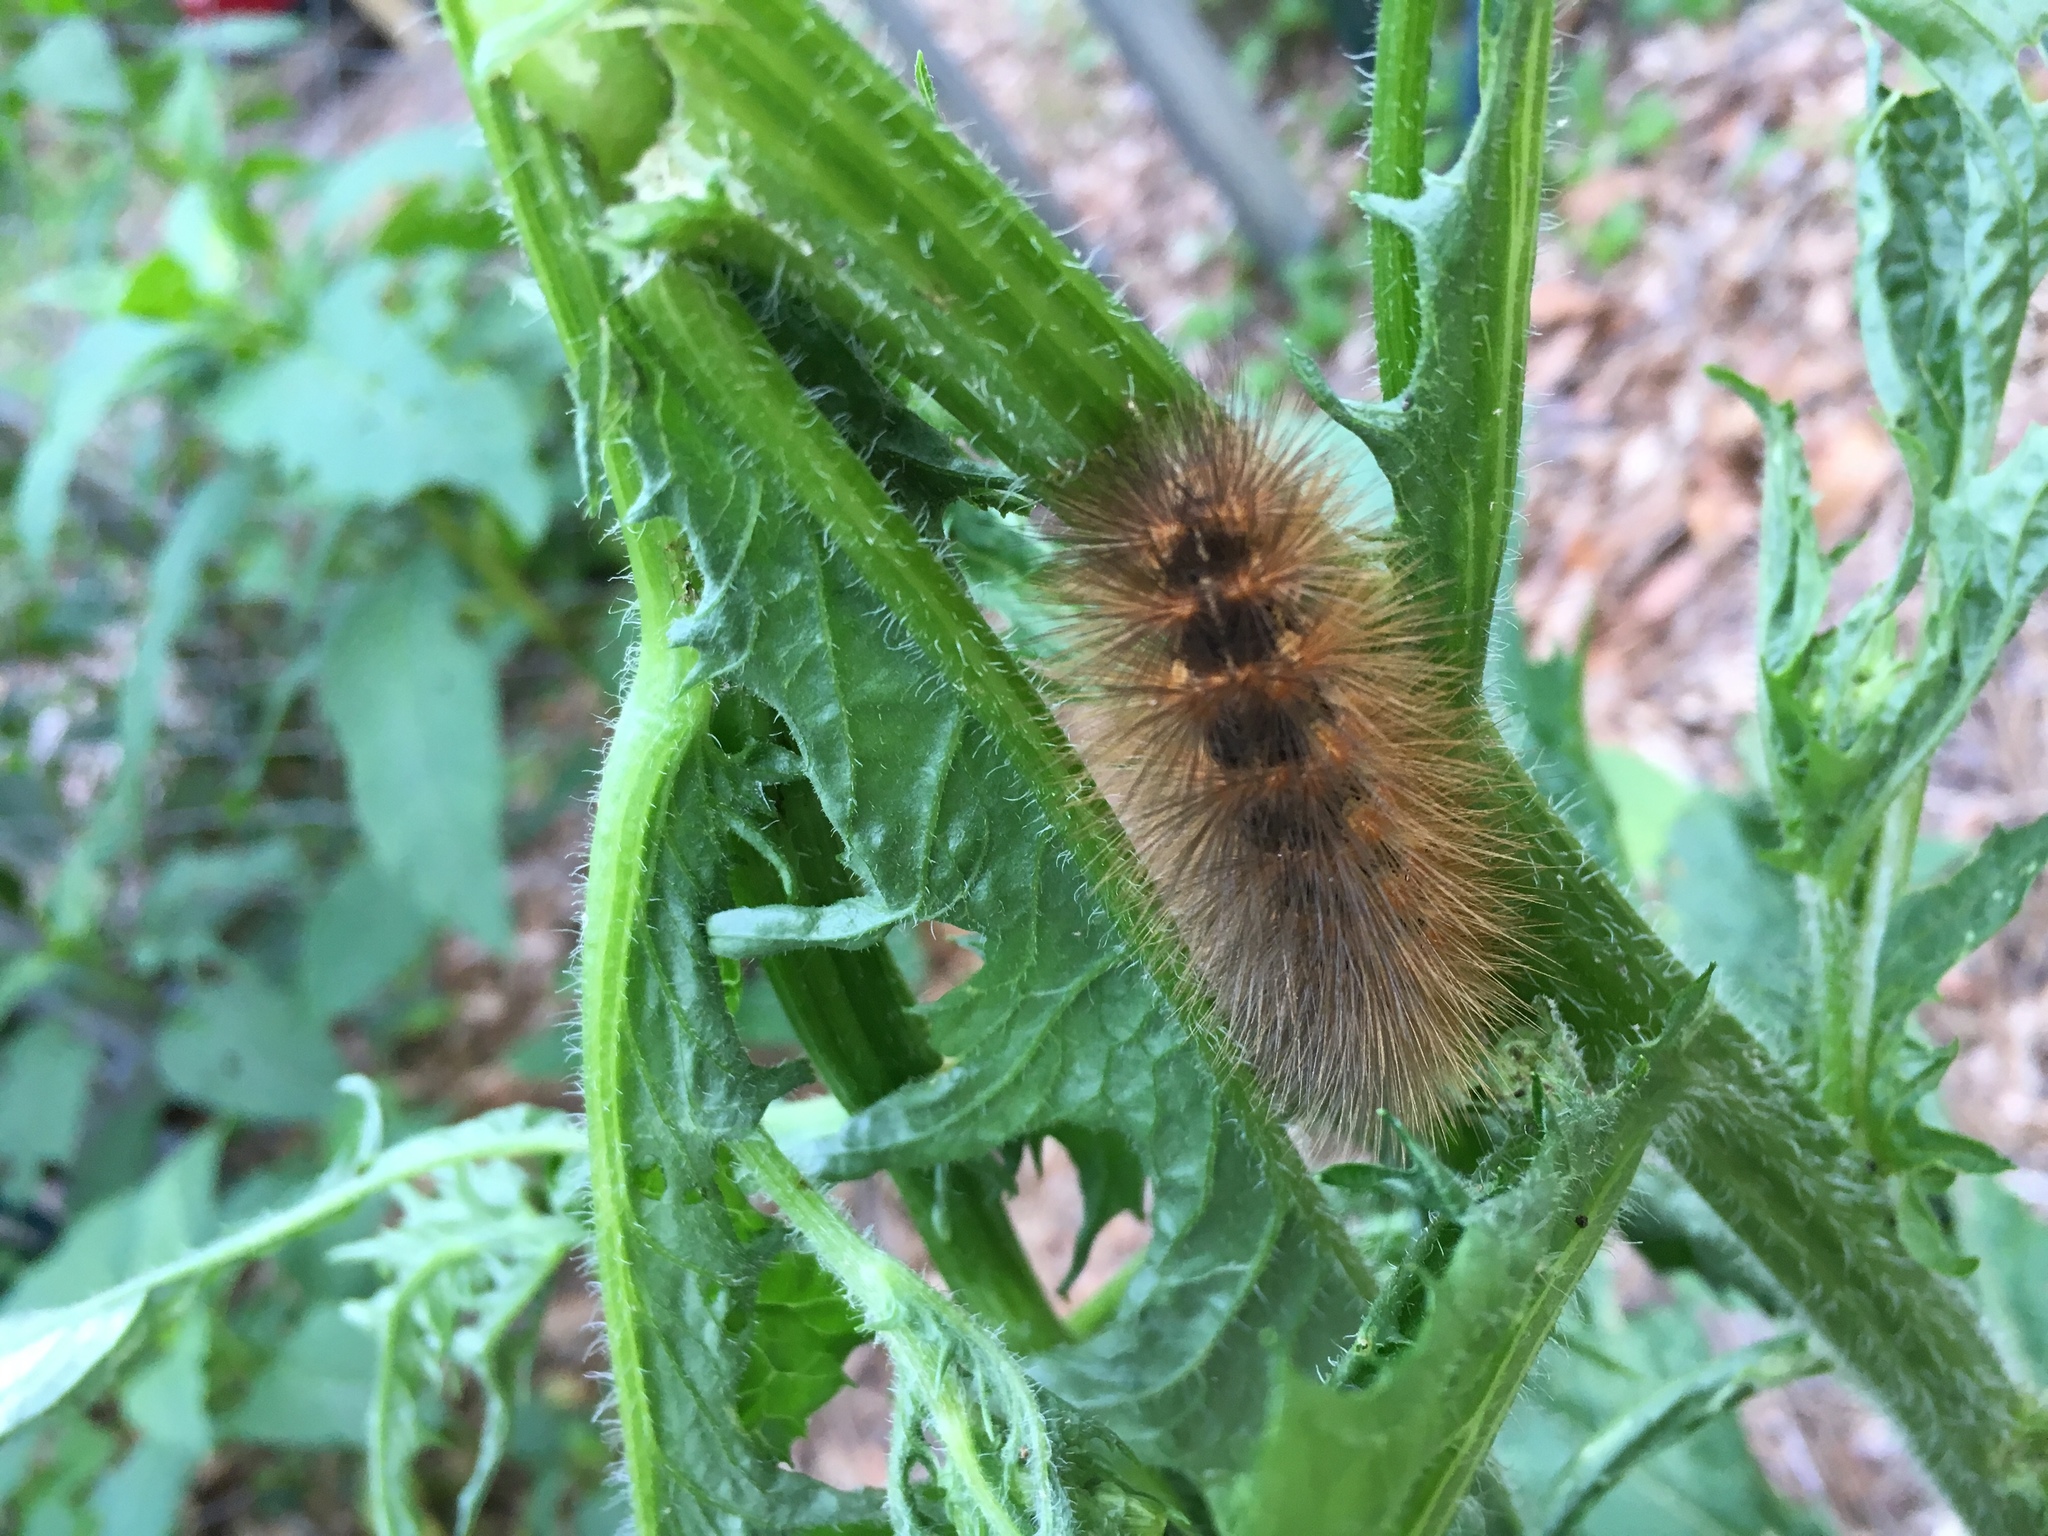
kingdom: Animalia
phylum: Arthropoda
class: Insecta
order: Lepidoptera
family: Erebidae
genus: Estigmene
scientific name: Estigmene acrea
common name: Salt marsh moth
